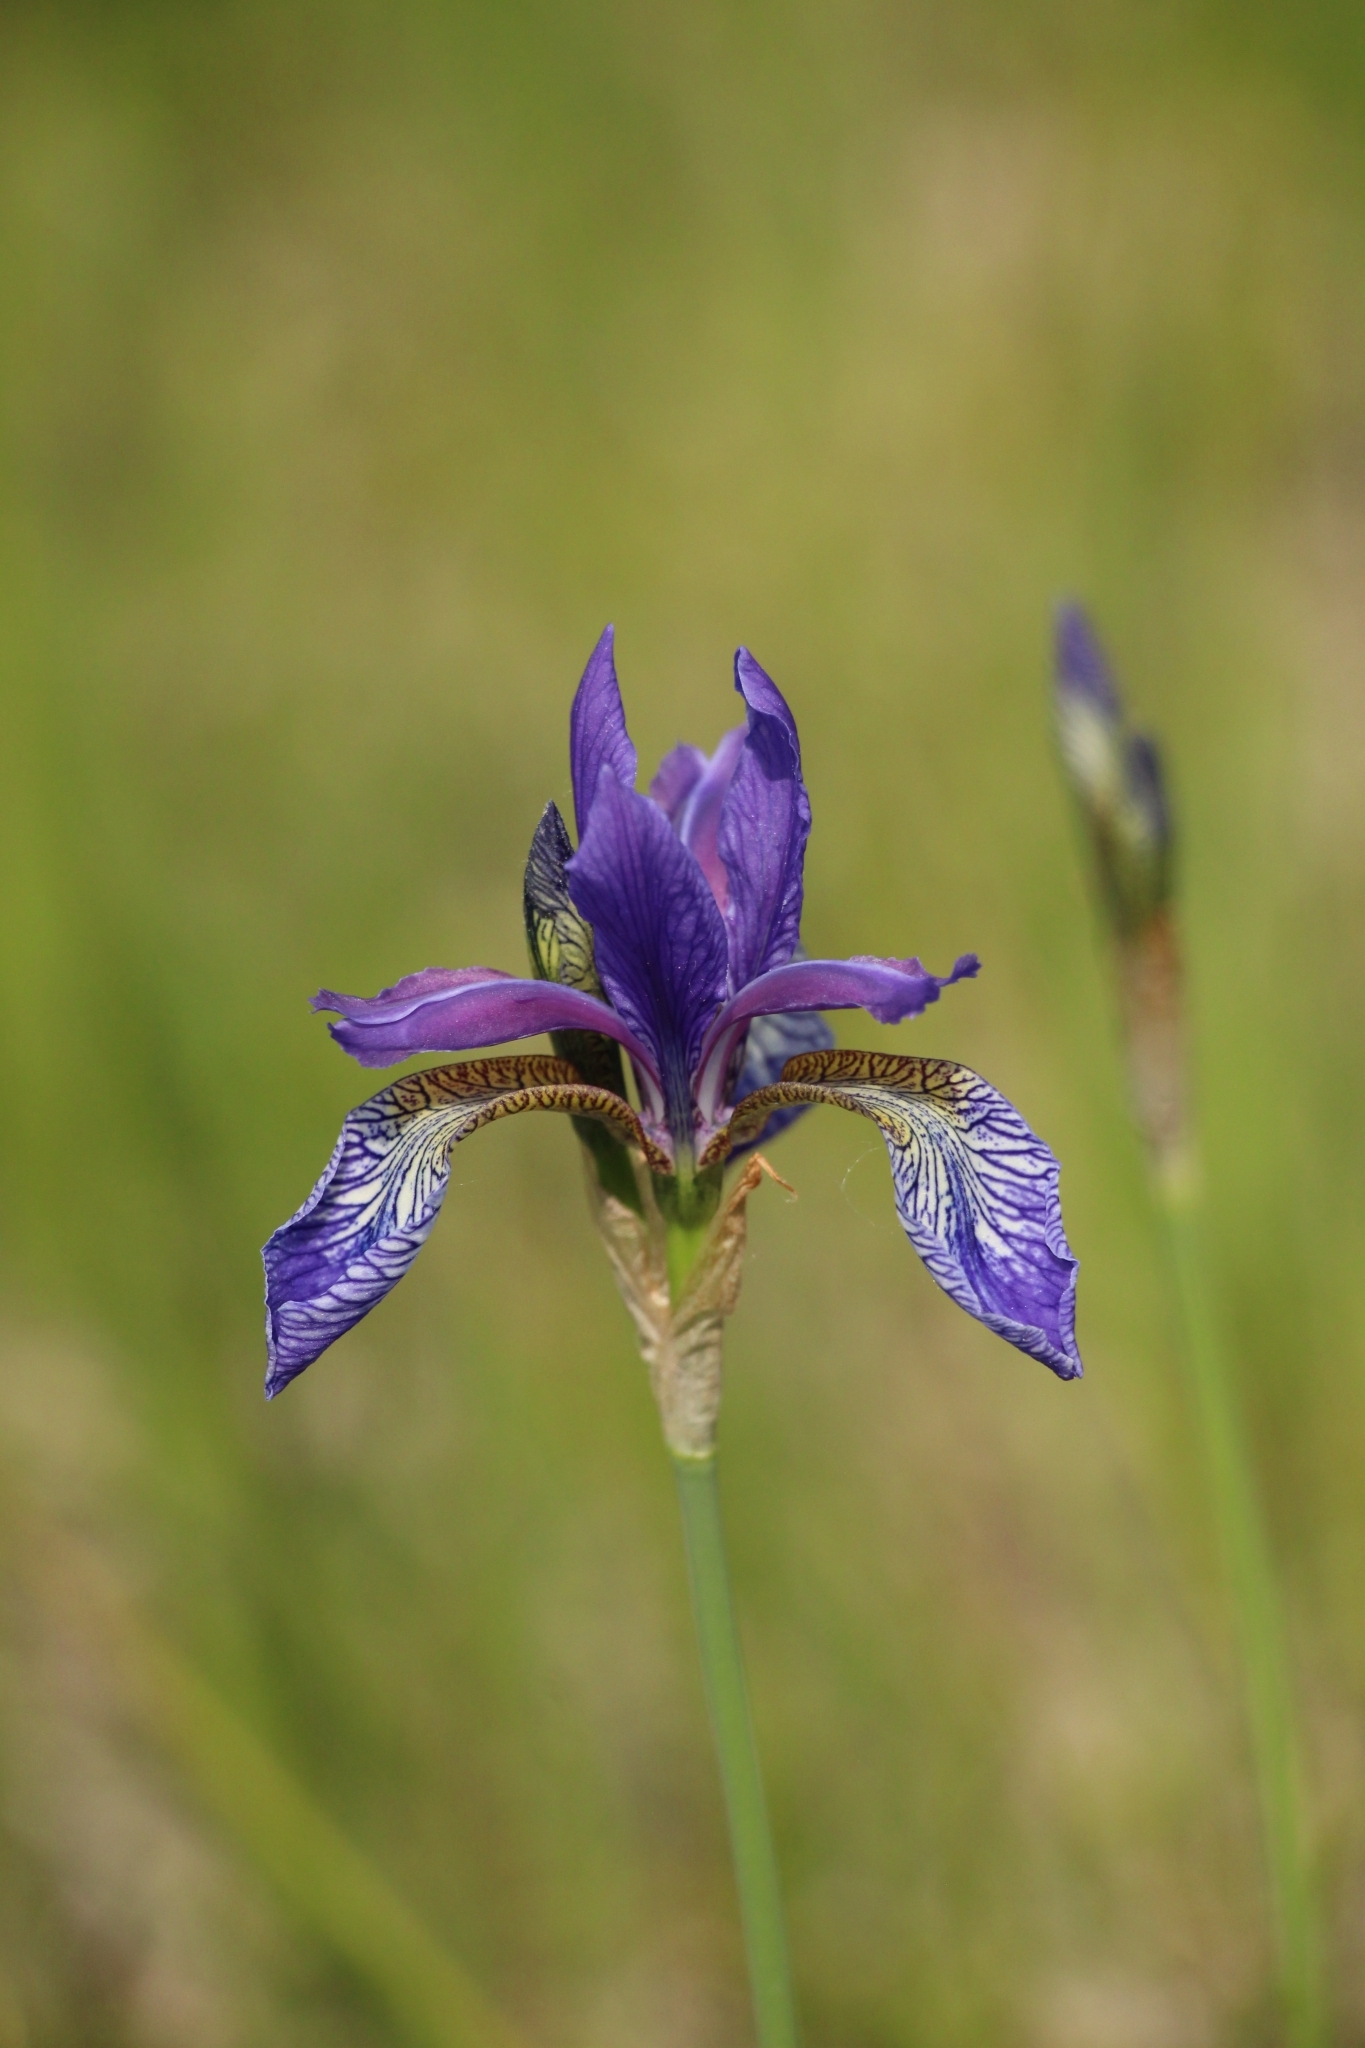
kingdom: Plantae
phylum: Tracheophyta
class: Liliopsida
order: Asparagales
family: Iridaceae
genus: Iris
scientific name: Iris sibirica
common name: Siberian iris
